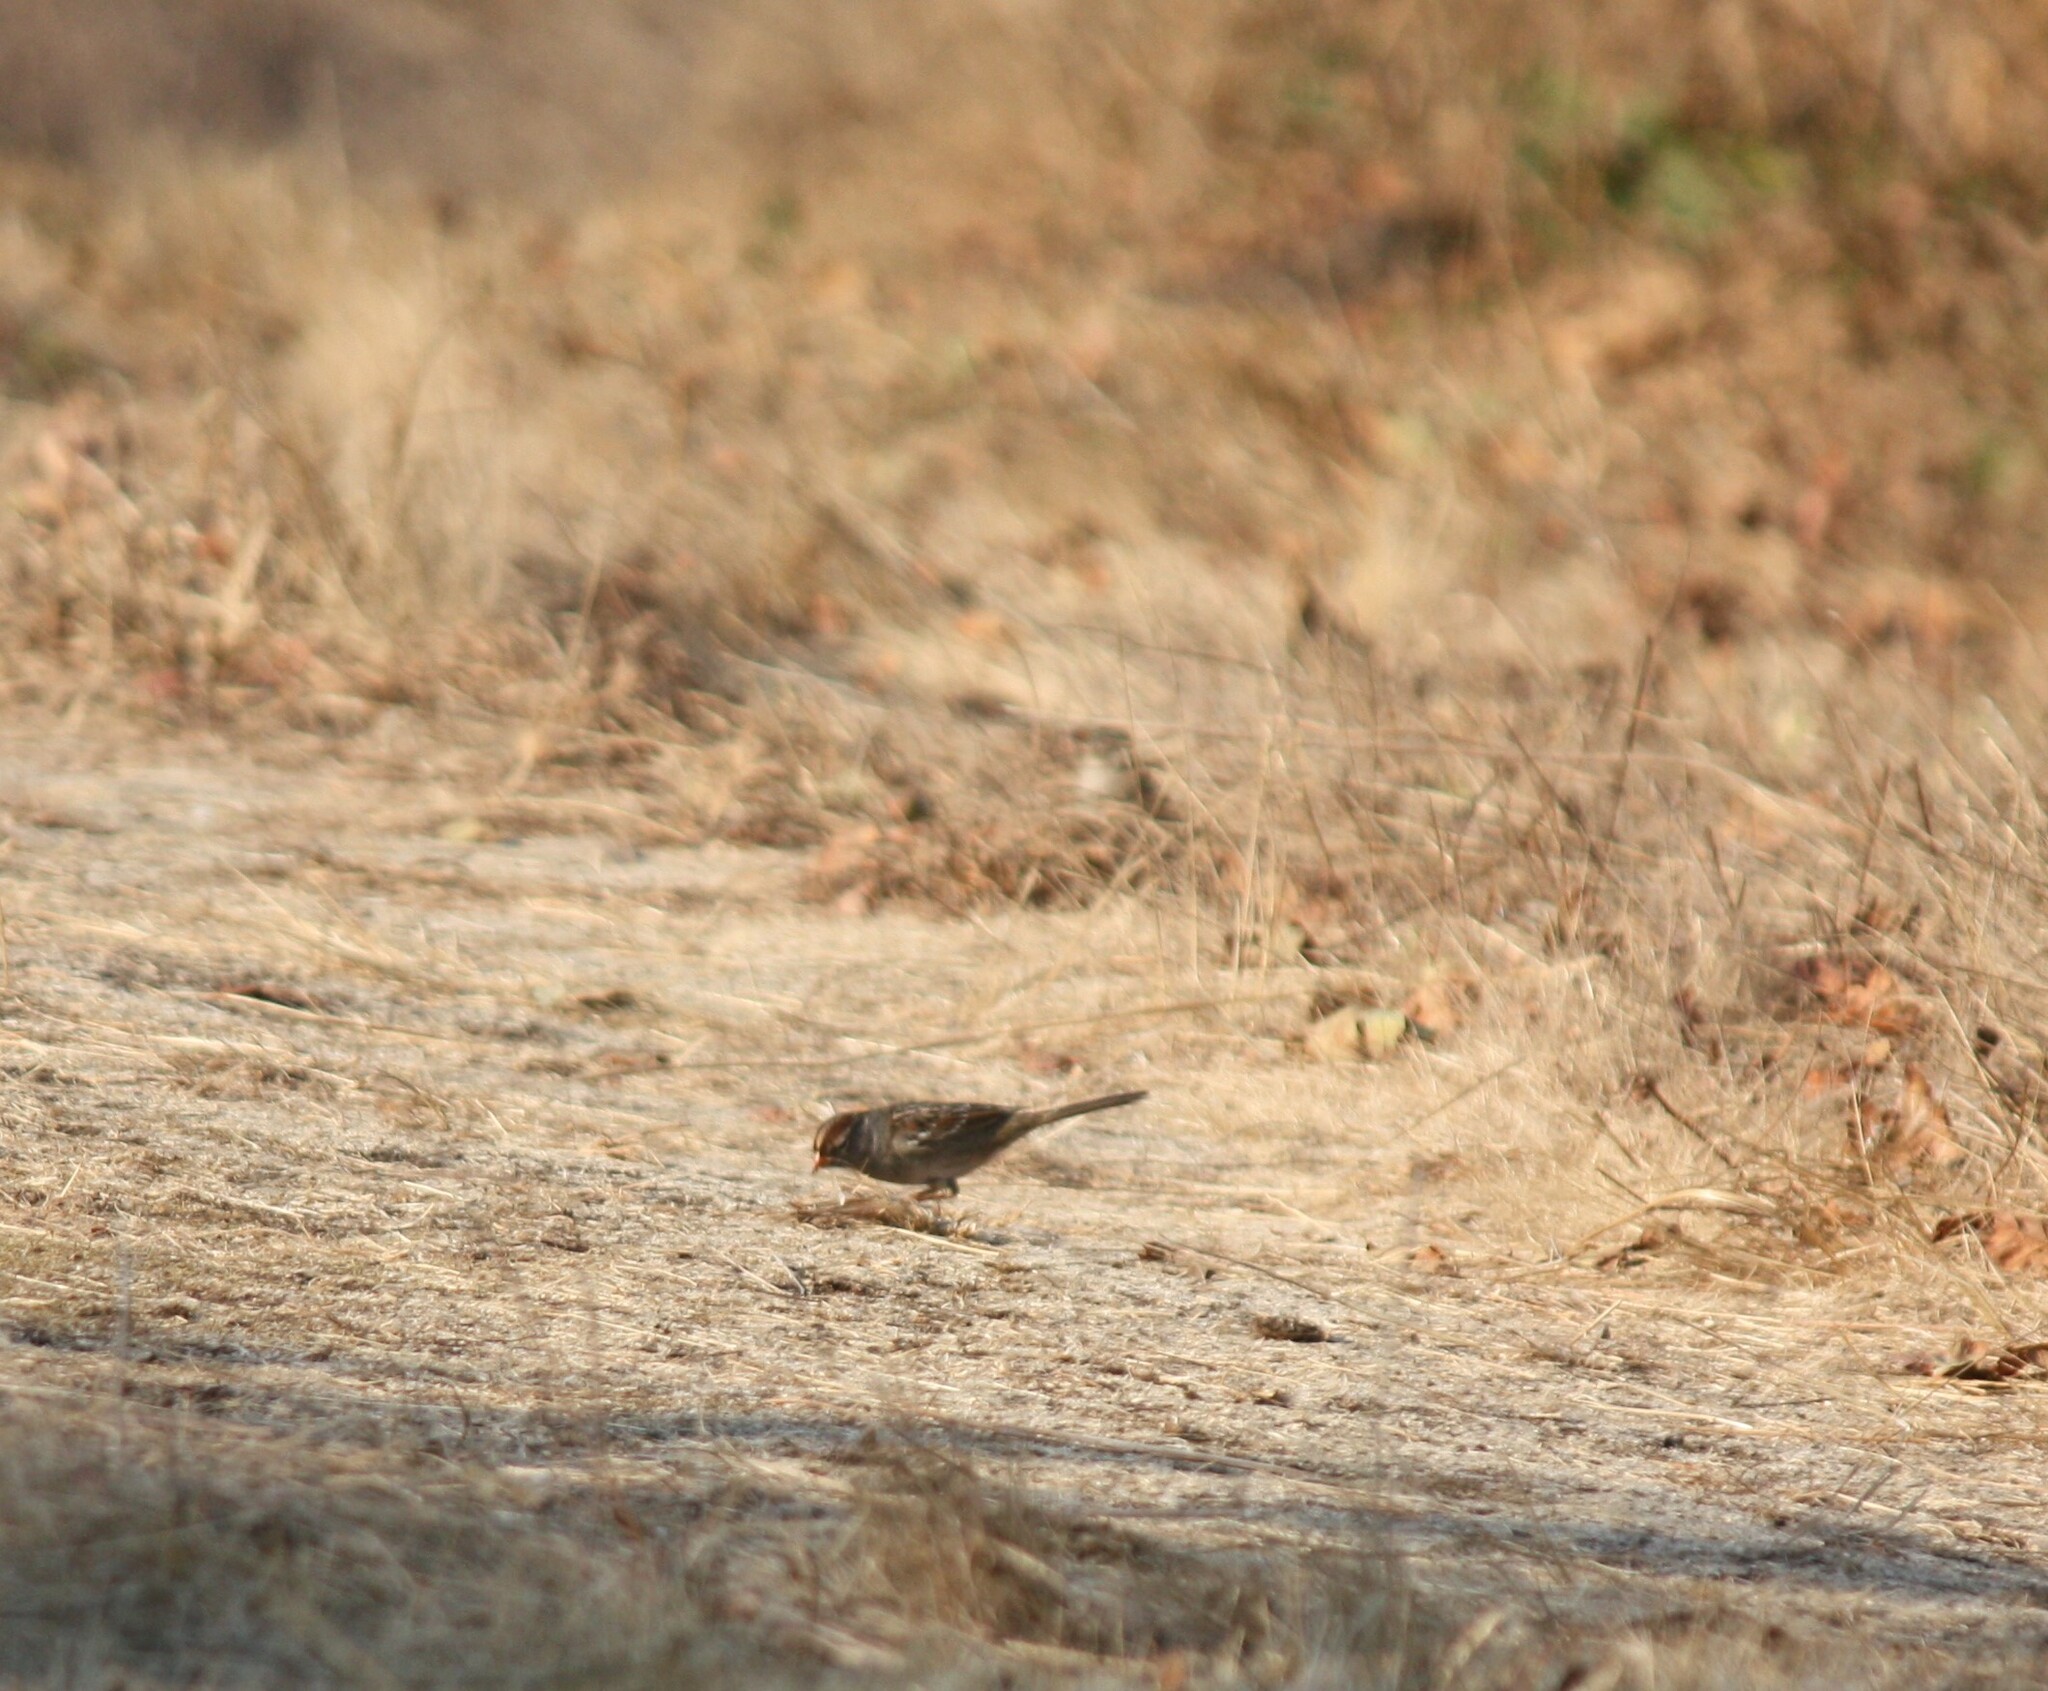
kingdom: Animalia
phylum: Chordata
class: Aves
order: Passeriformes
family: Passerellidae
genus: Zonotrichia
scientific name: Zonotrichia leucophrys
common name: White-crowned sparrow
